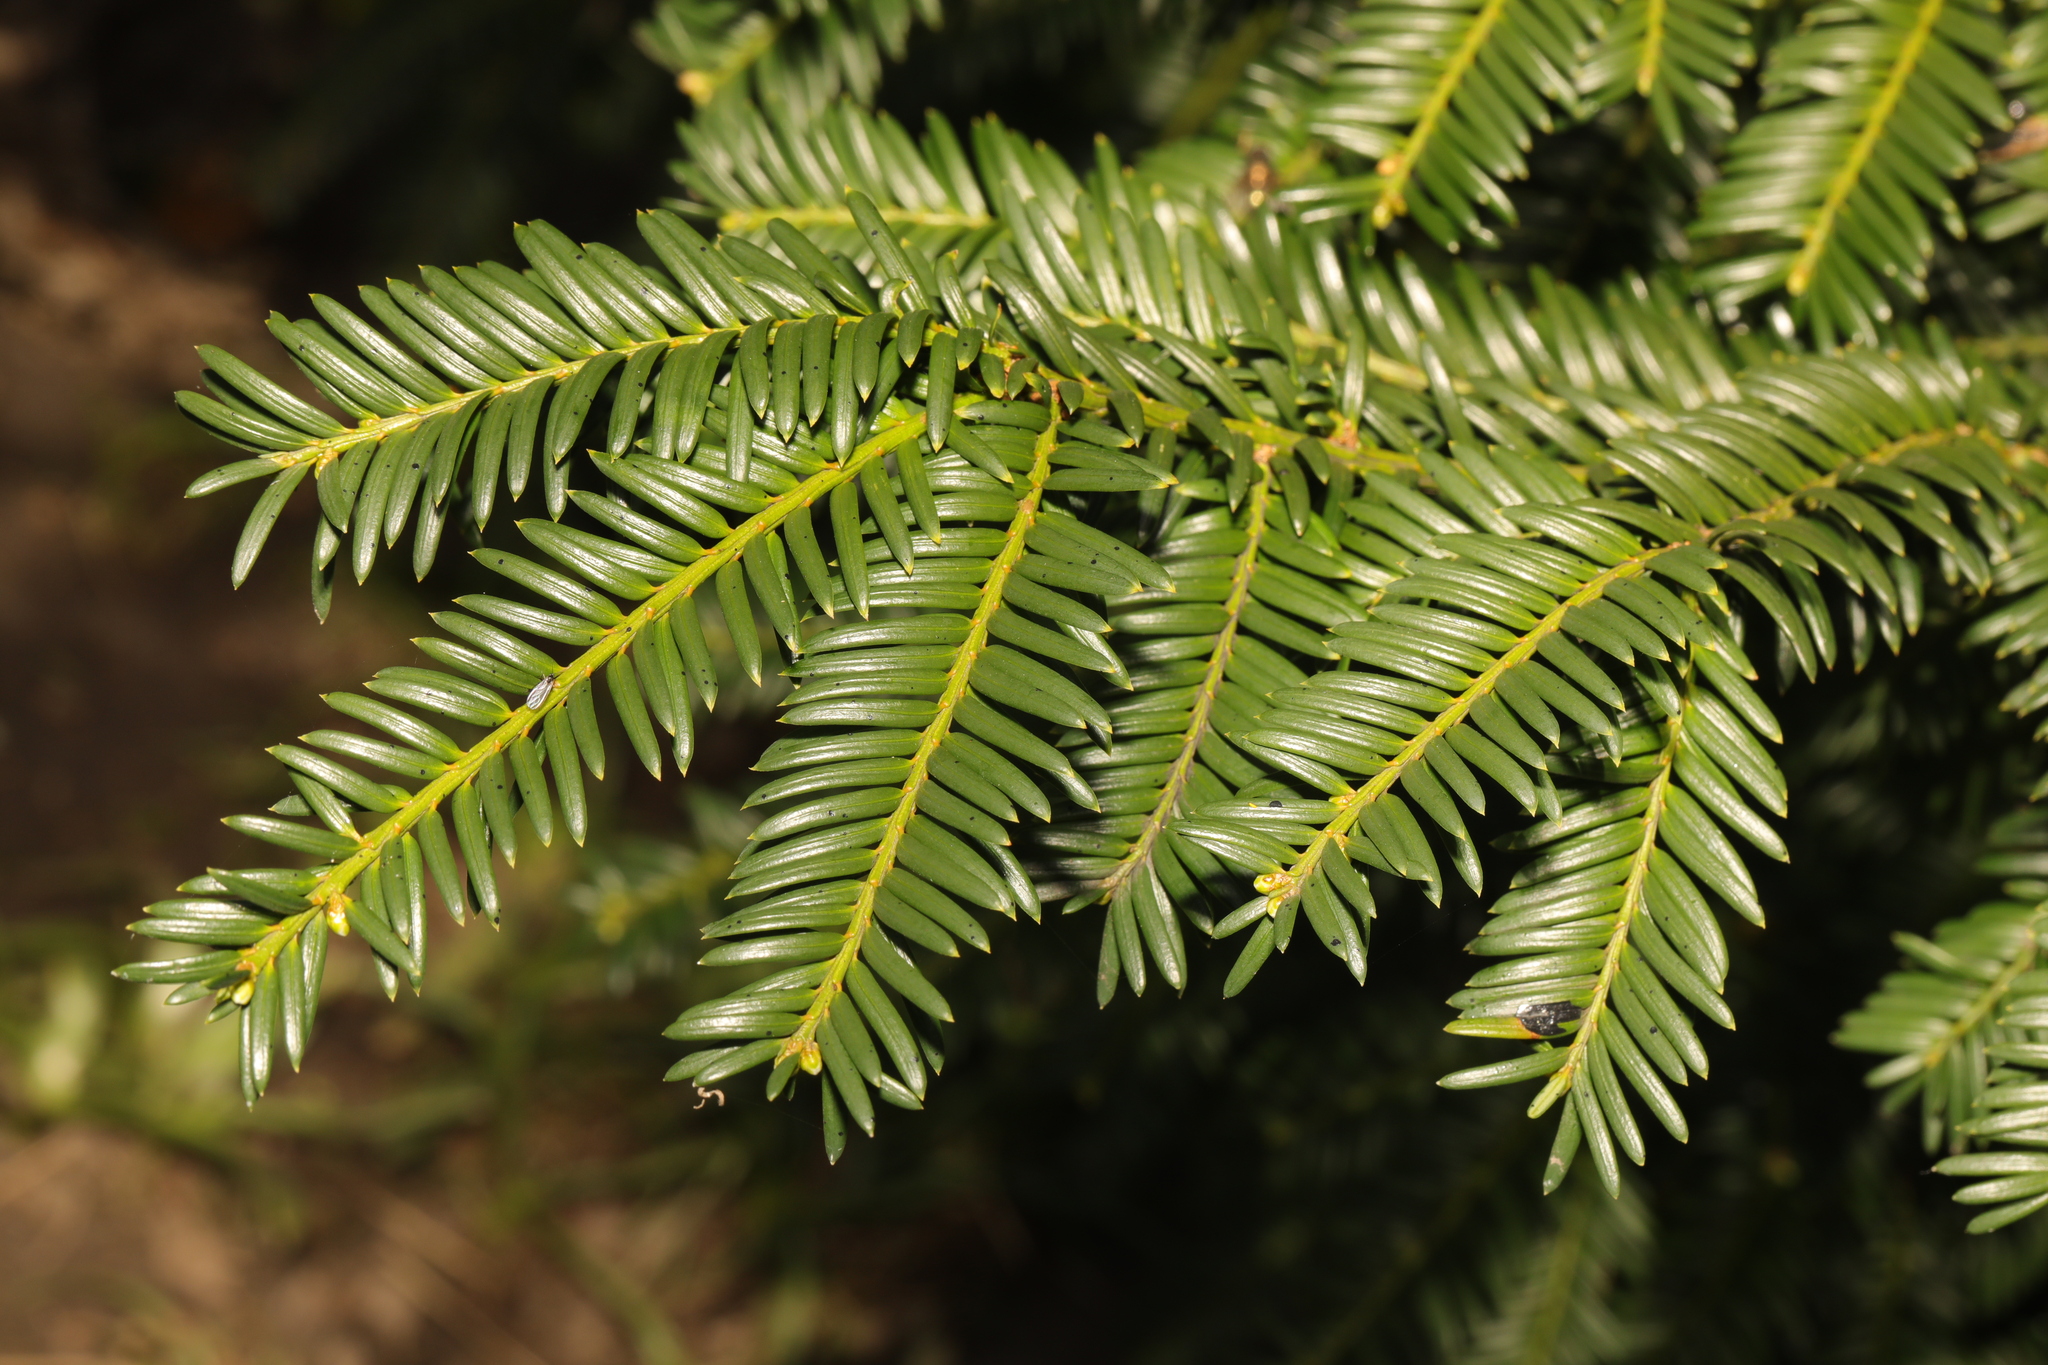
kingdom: Plantae
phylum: Tracheophyta
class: Pinopsida
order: Pinales
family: Taxaceae
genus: Taxus
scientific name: Taxus baccata
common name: Yew
